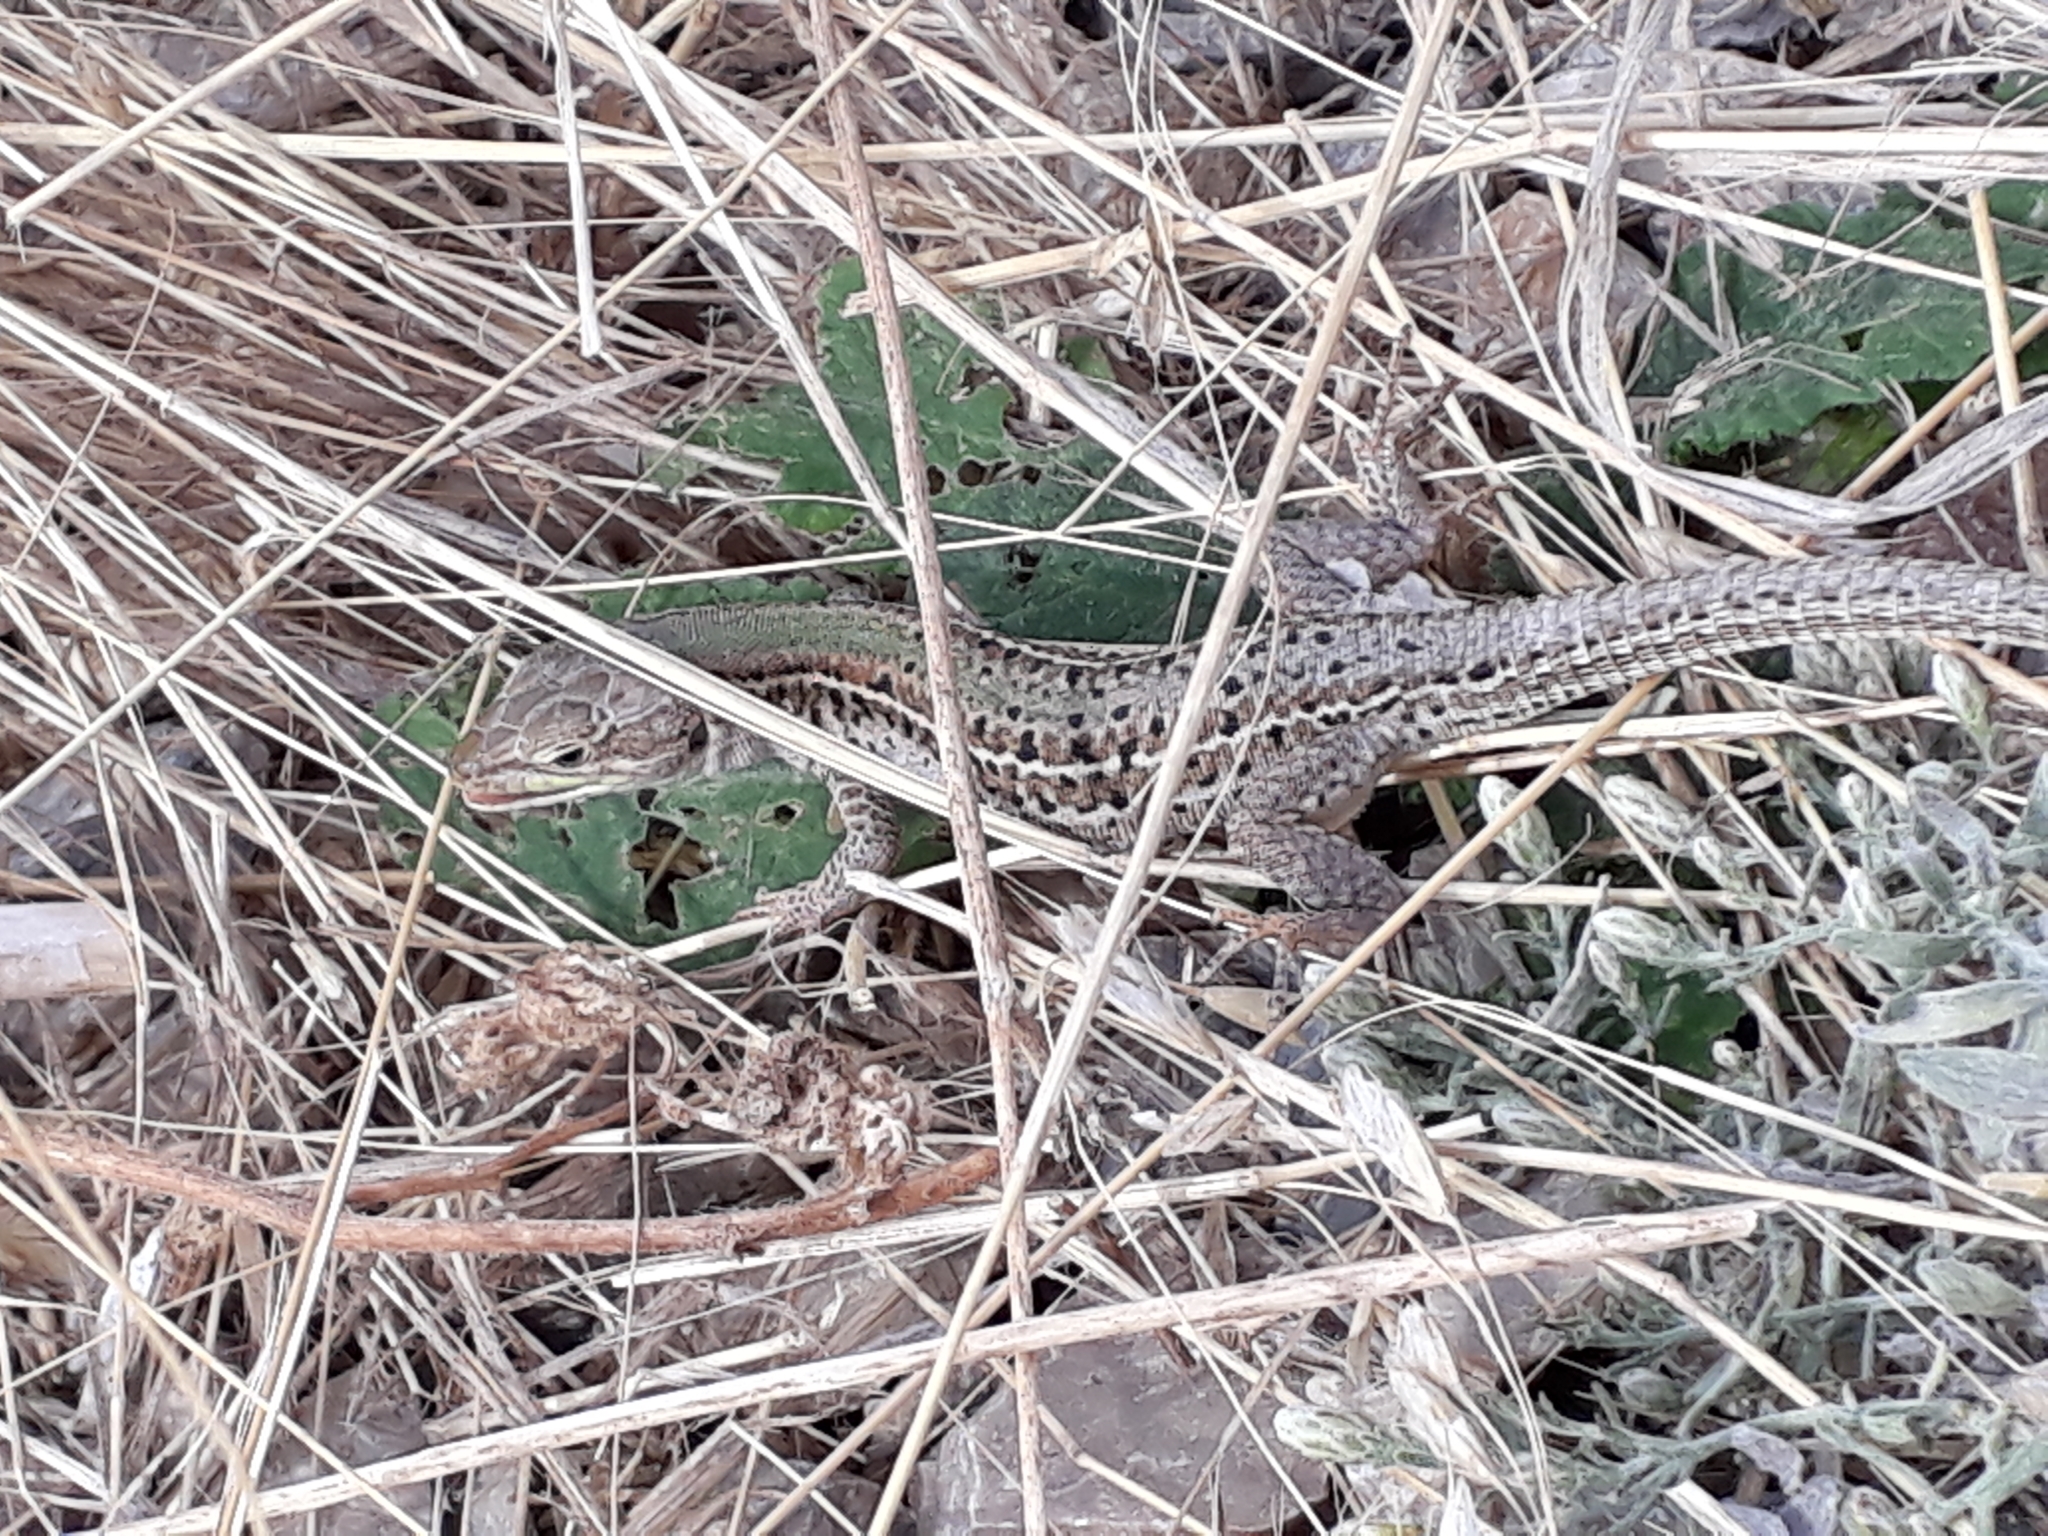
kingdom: Animalia
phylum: Chordata
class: Squamata
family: Lacertidae
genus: Podarcis
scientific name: Podarcis tauricus
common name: Balkan wall lizard
